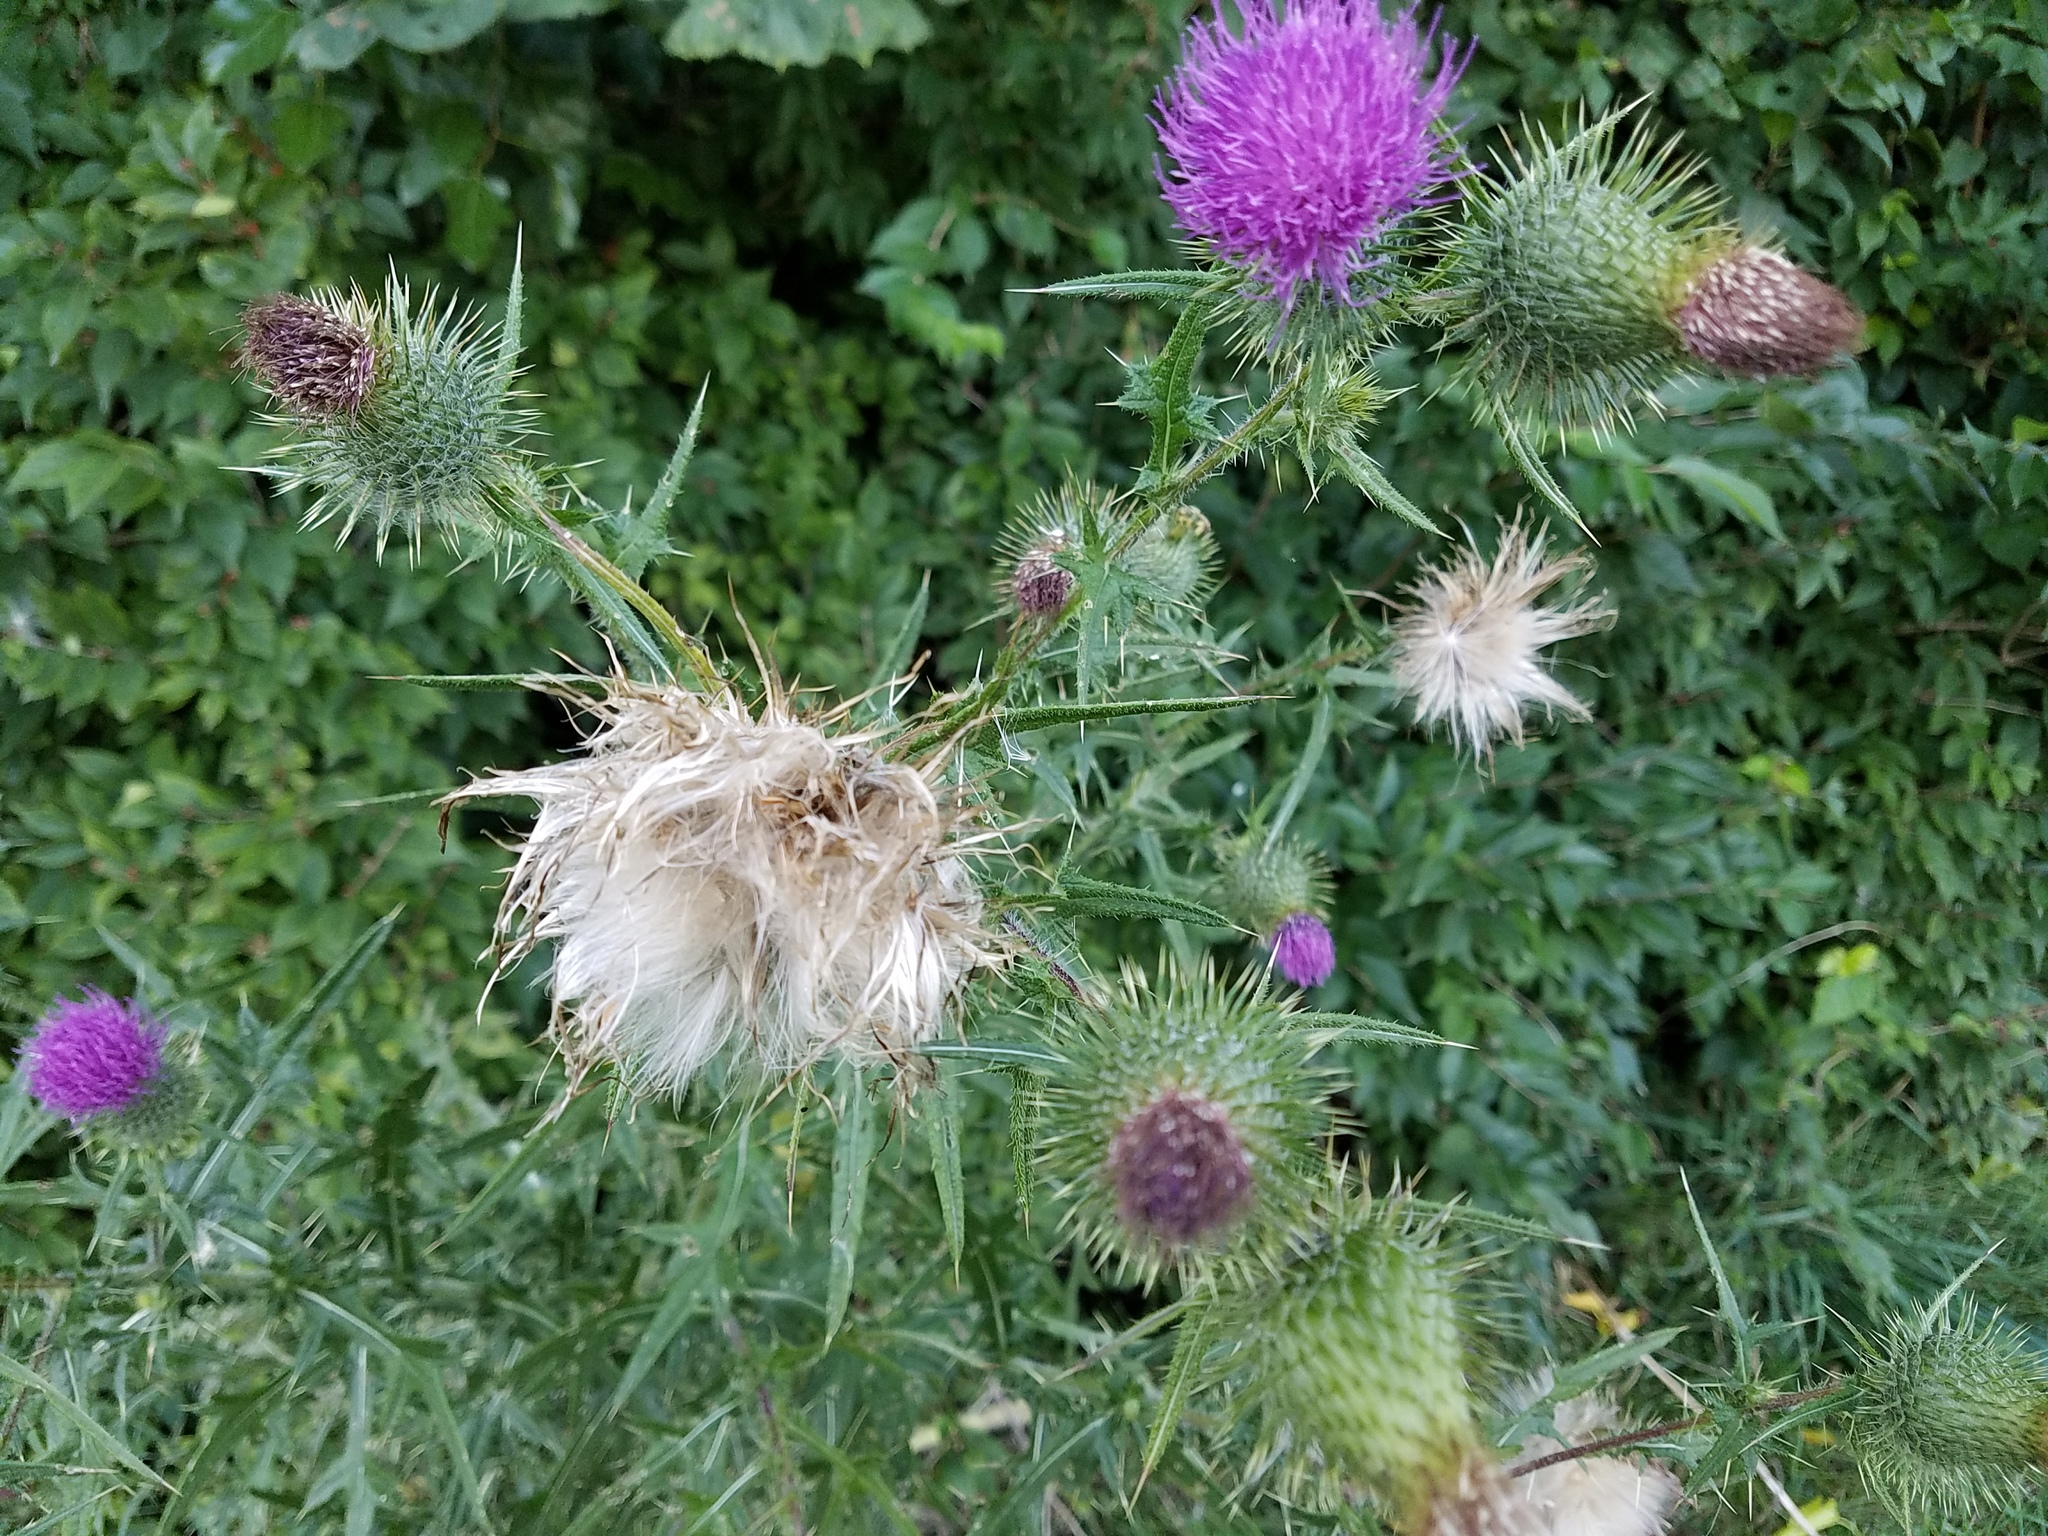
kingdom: Plantae
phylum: Tracheophyta
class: Magnoliopsida
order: Asterales
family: Asteraceae
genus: Cirsium
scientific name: Cirsium vulgare
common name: Bull thistle
